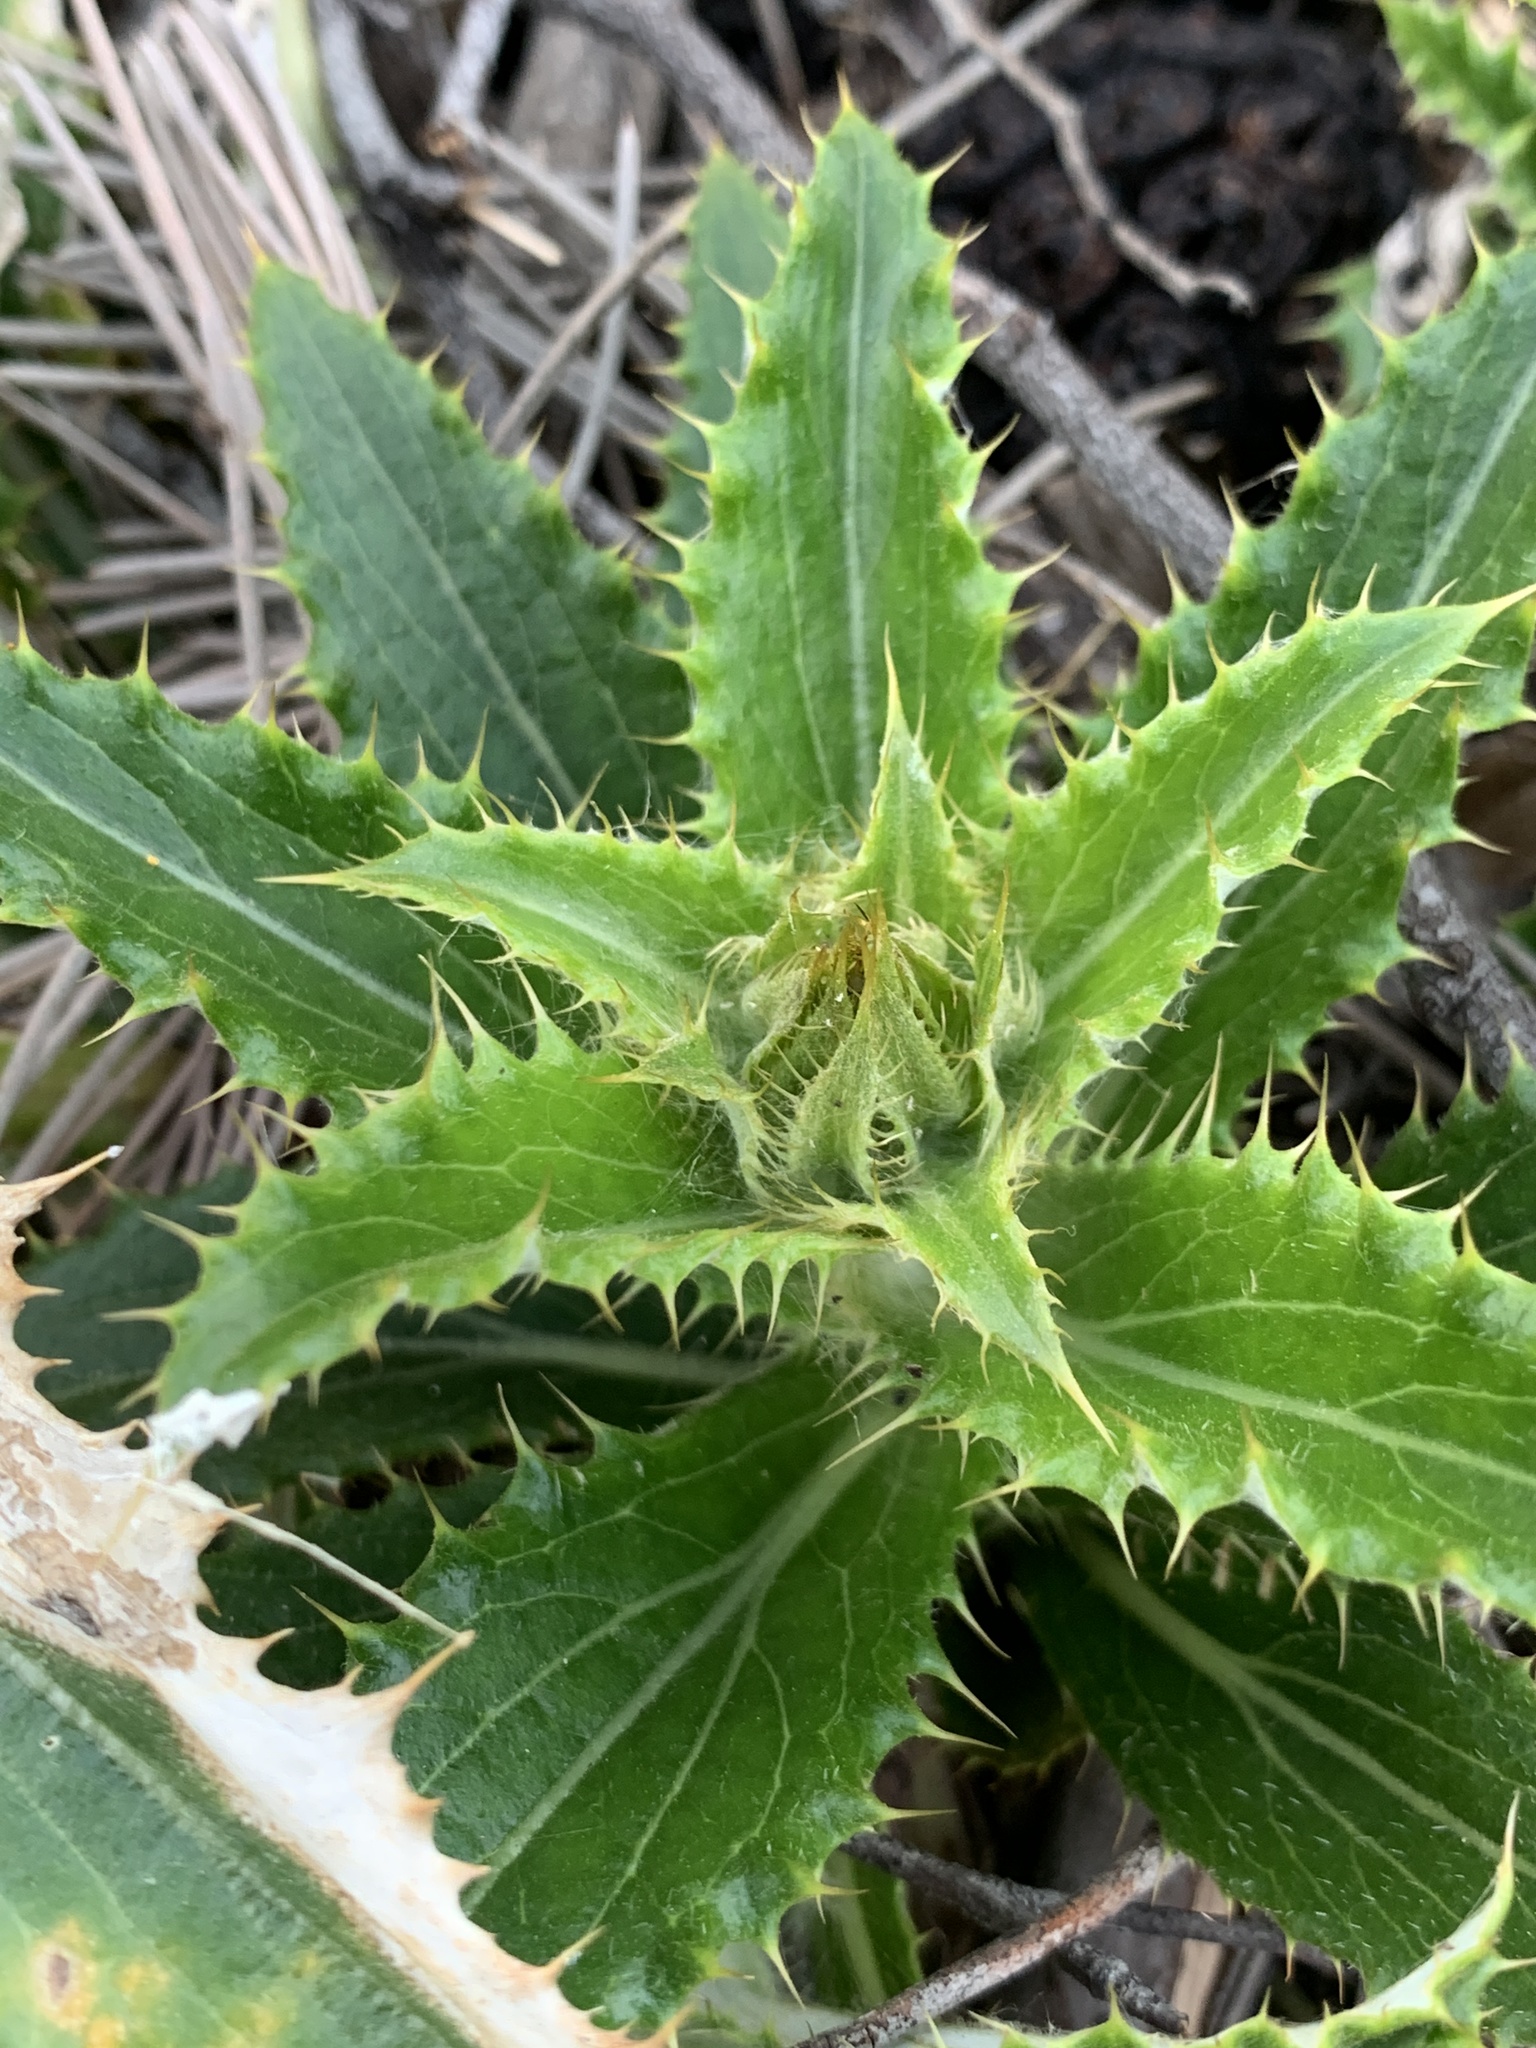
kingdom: Plantae
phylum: Tracheophyta
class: Magnoliopsida
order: Asterales
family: Asteraceae
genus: Berkheya
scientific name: Berkheya armata
